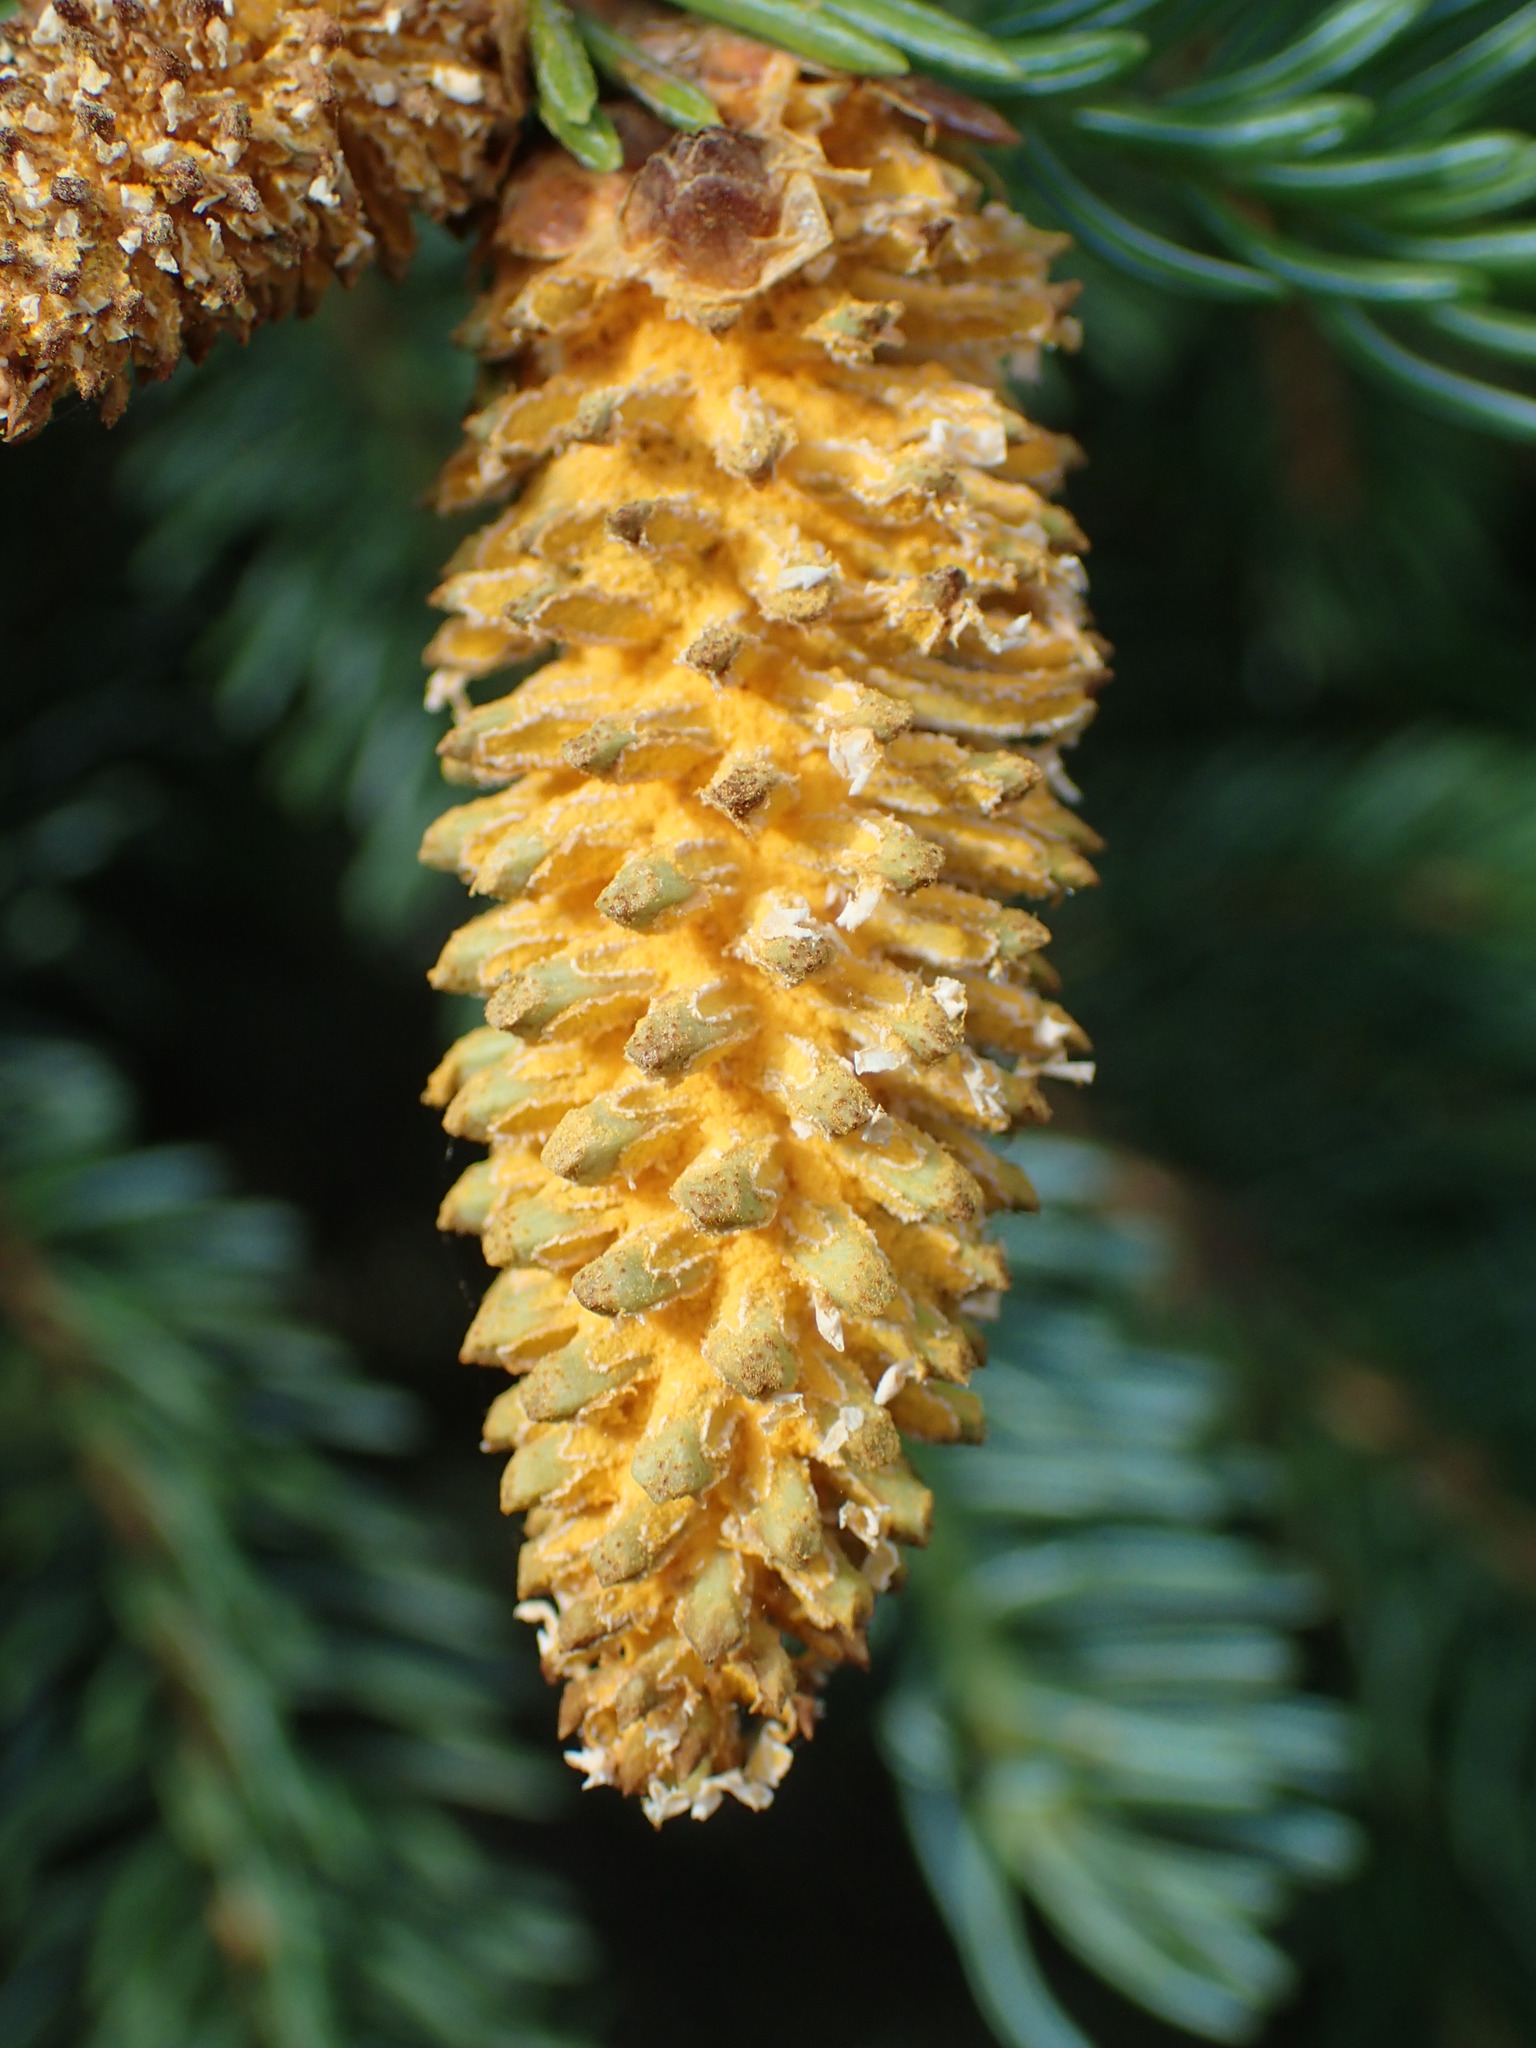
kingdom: Fungi
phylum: Basidiomycota
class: Pucciniomycetes
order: Pucciniales
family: Coleosporiaceae
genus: Chrysomyxa
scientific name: Chrysomyxa woroninii
